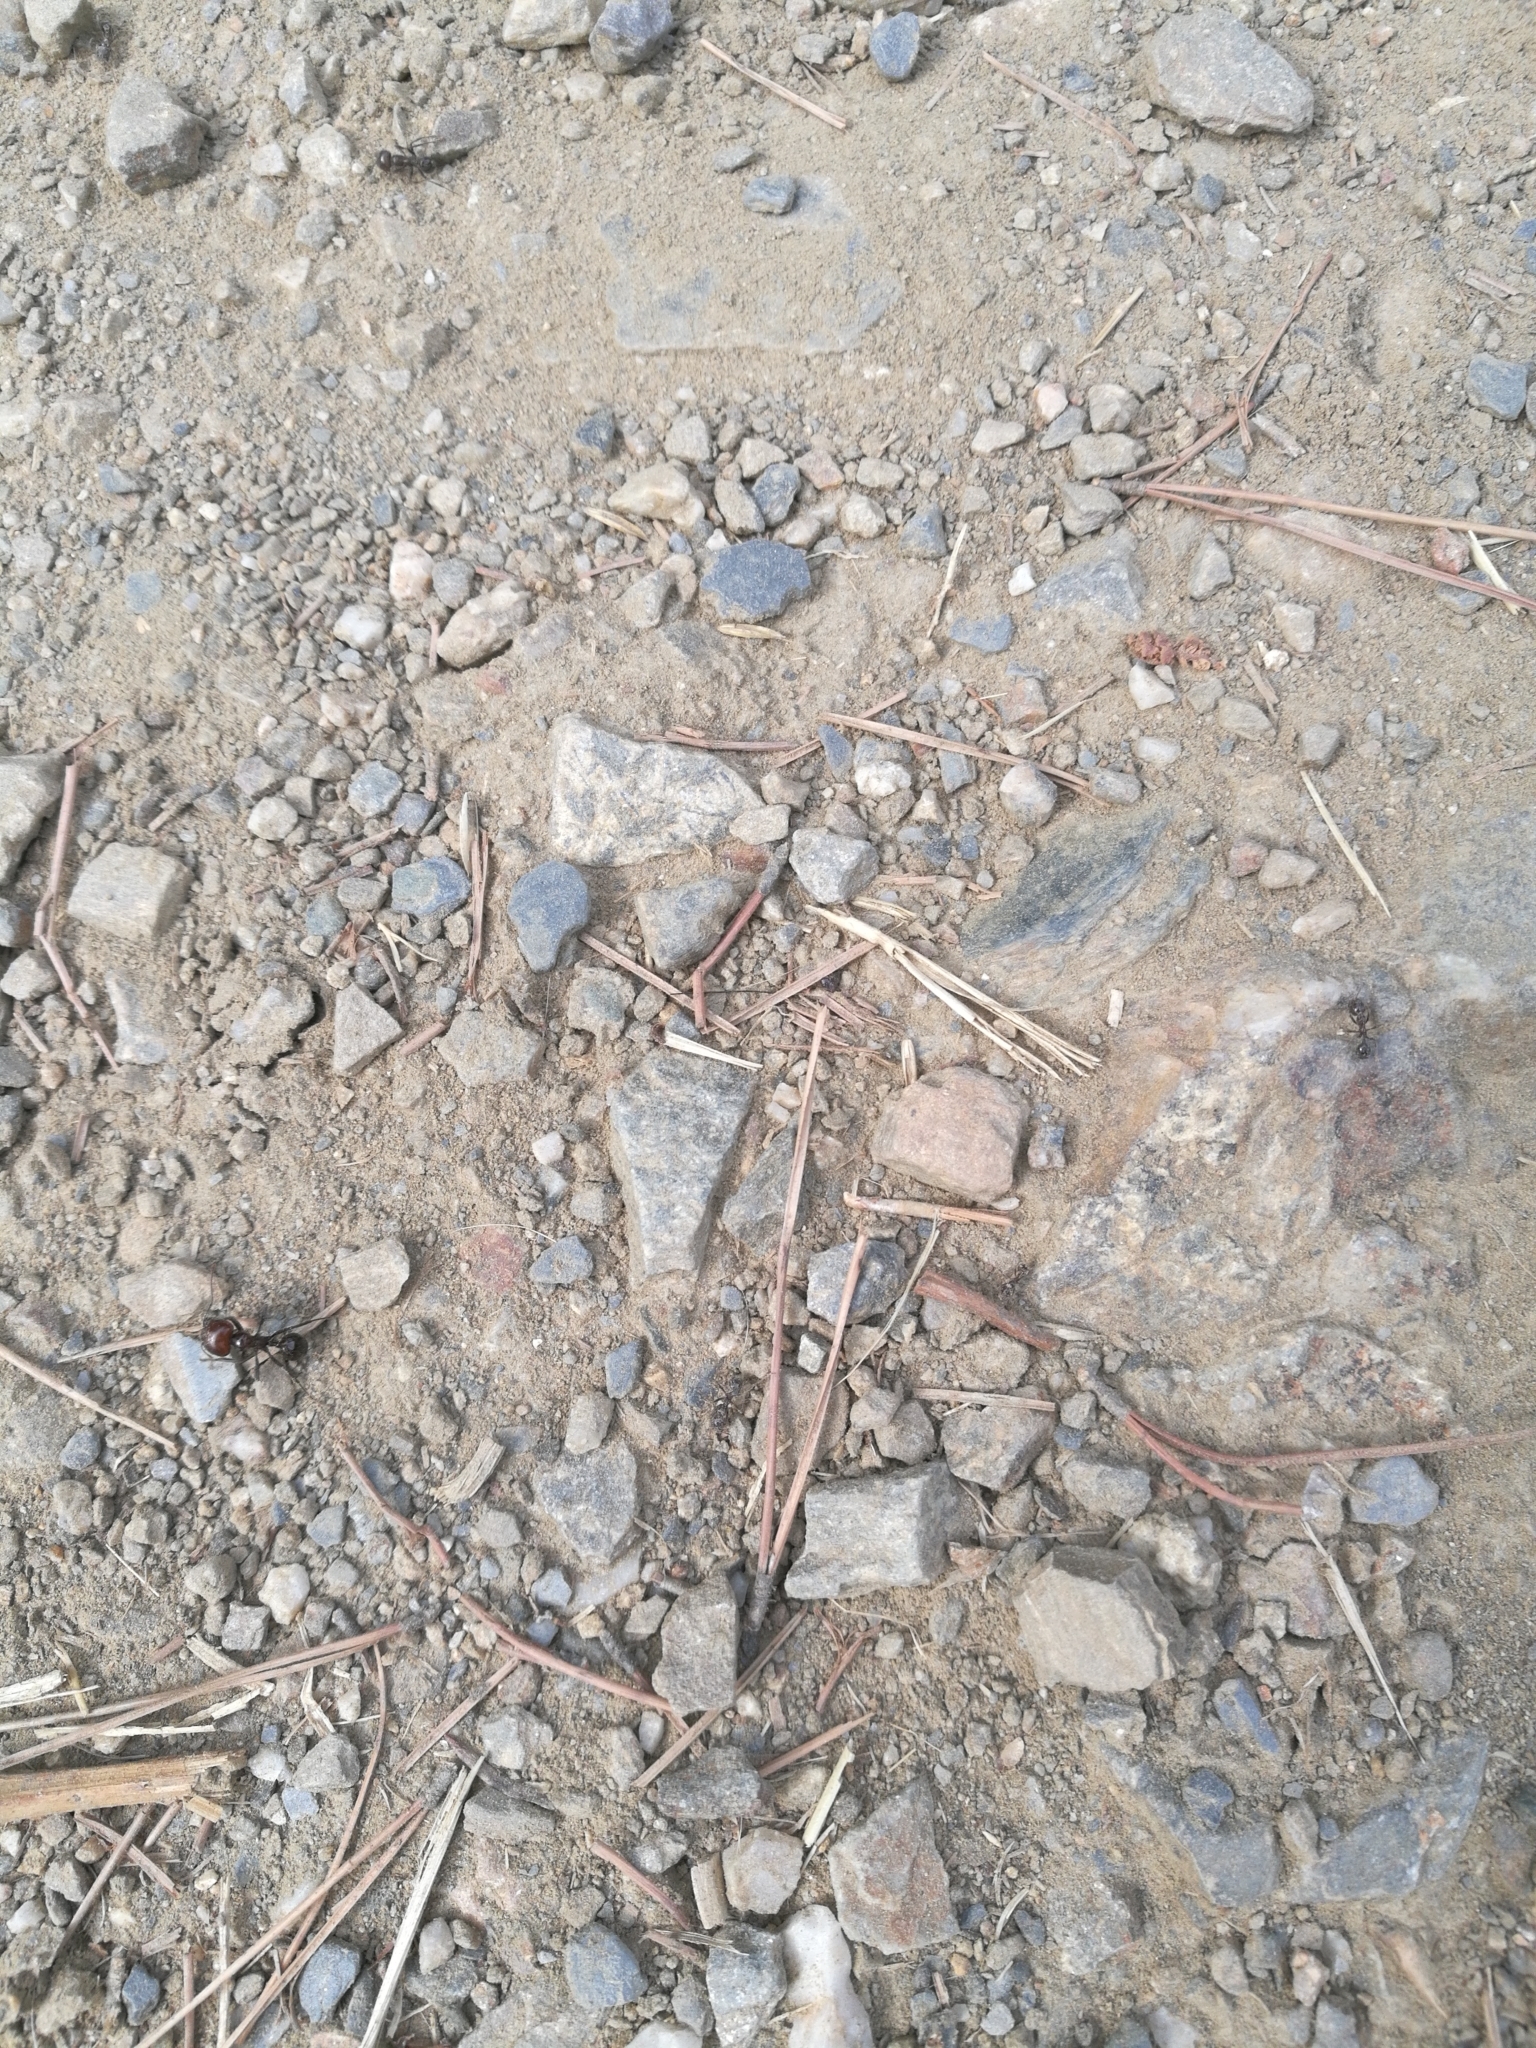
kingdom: Animalia
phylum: Arthropoda
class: Insecta
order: Hymenoptera
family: Formicidae
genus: Messor
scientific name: Messor barbarus
